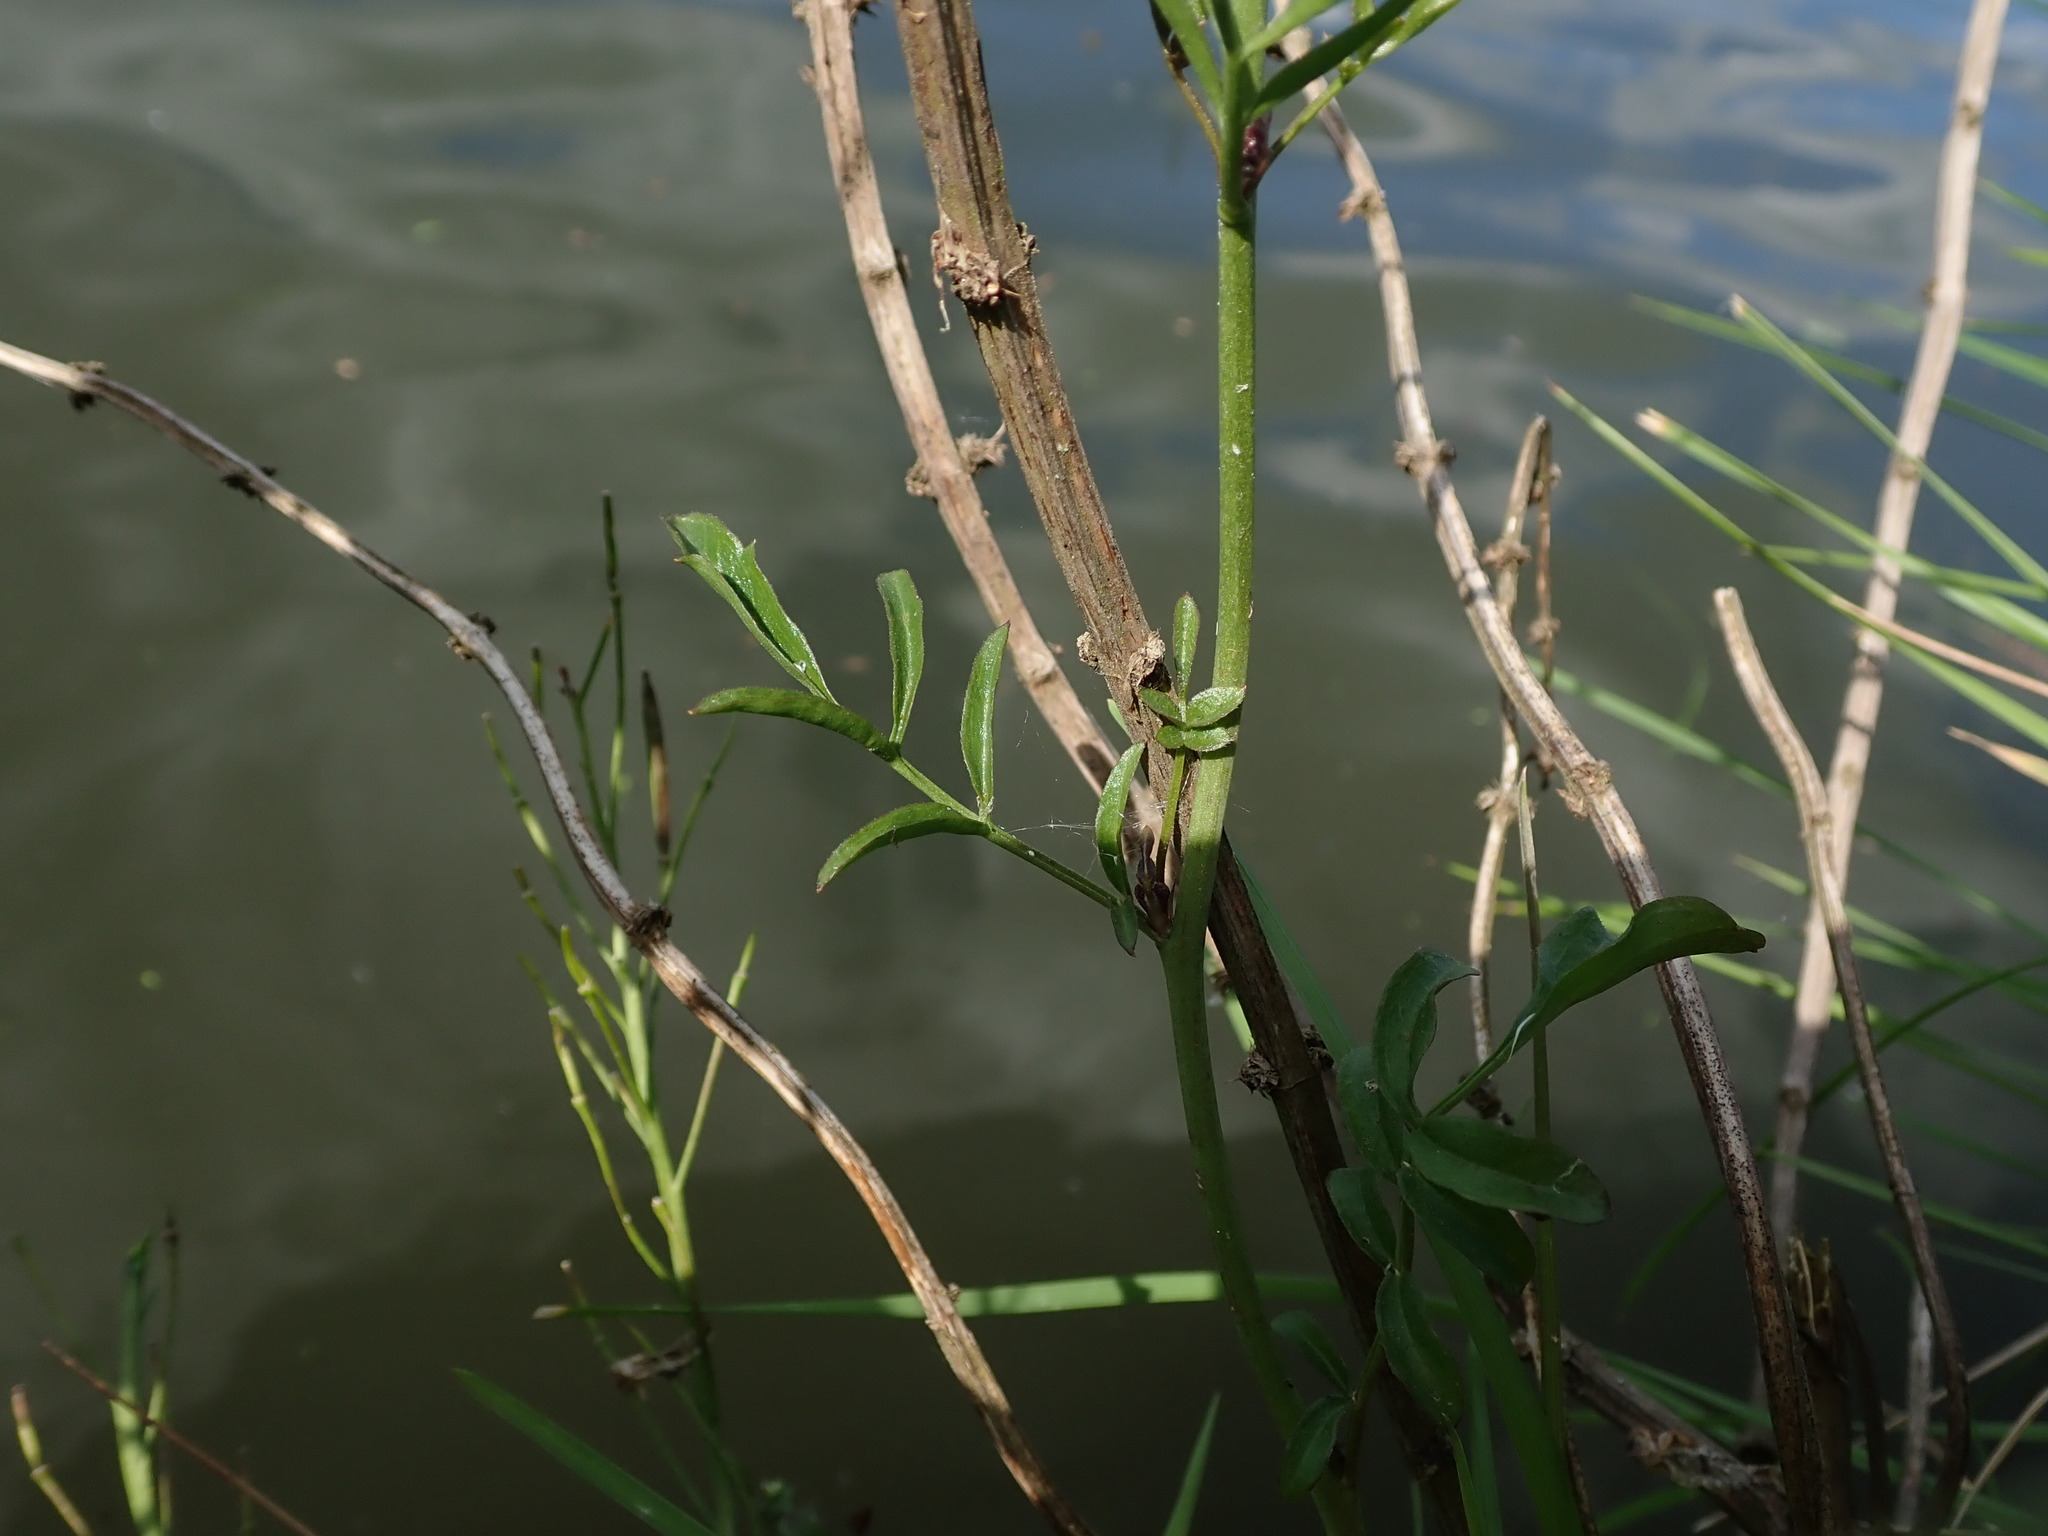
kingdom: Plantae
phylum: Tracheophyta
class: Magnoliopsida
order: Brassicales
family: Brassicaceae
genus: Cardamine
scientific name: Cardamine pratensis
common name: Cuckoo flower
